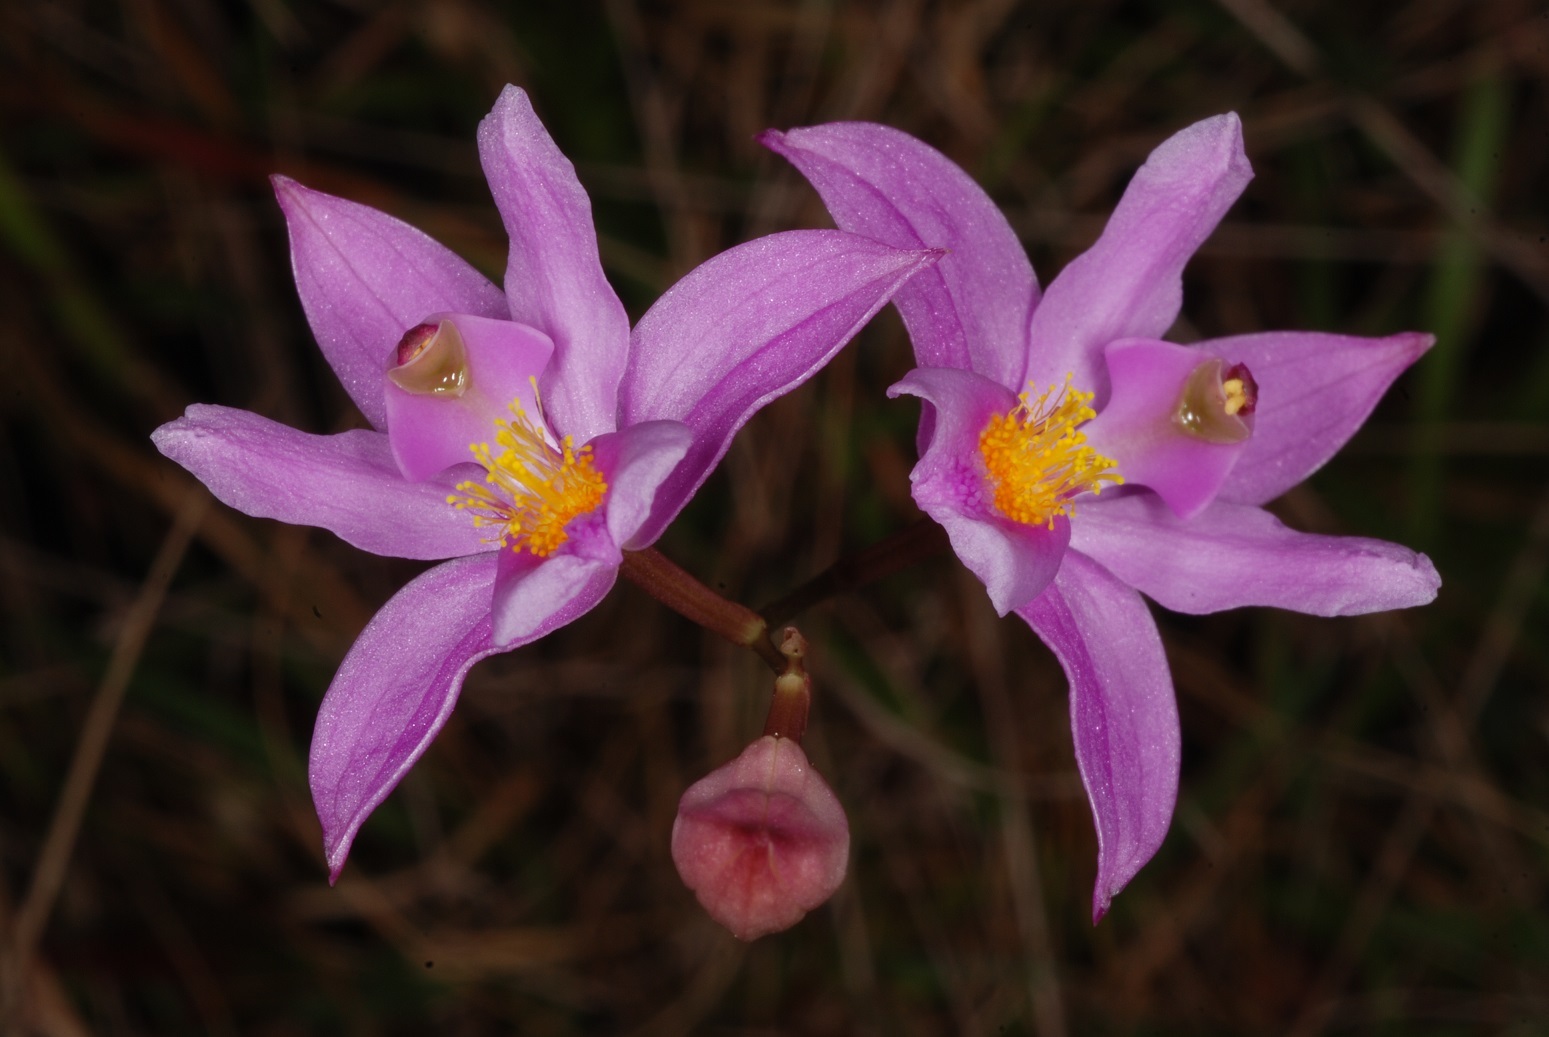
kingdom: Plantae
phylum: Tracheophyta
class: Liliopsida
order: Asparagales
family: Orchidaceae
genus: Calopogon
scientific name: Calopogon barbatus
